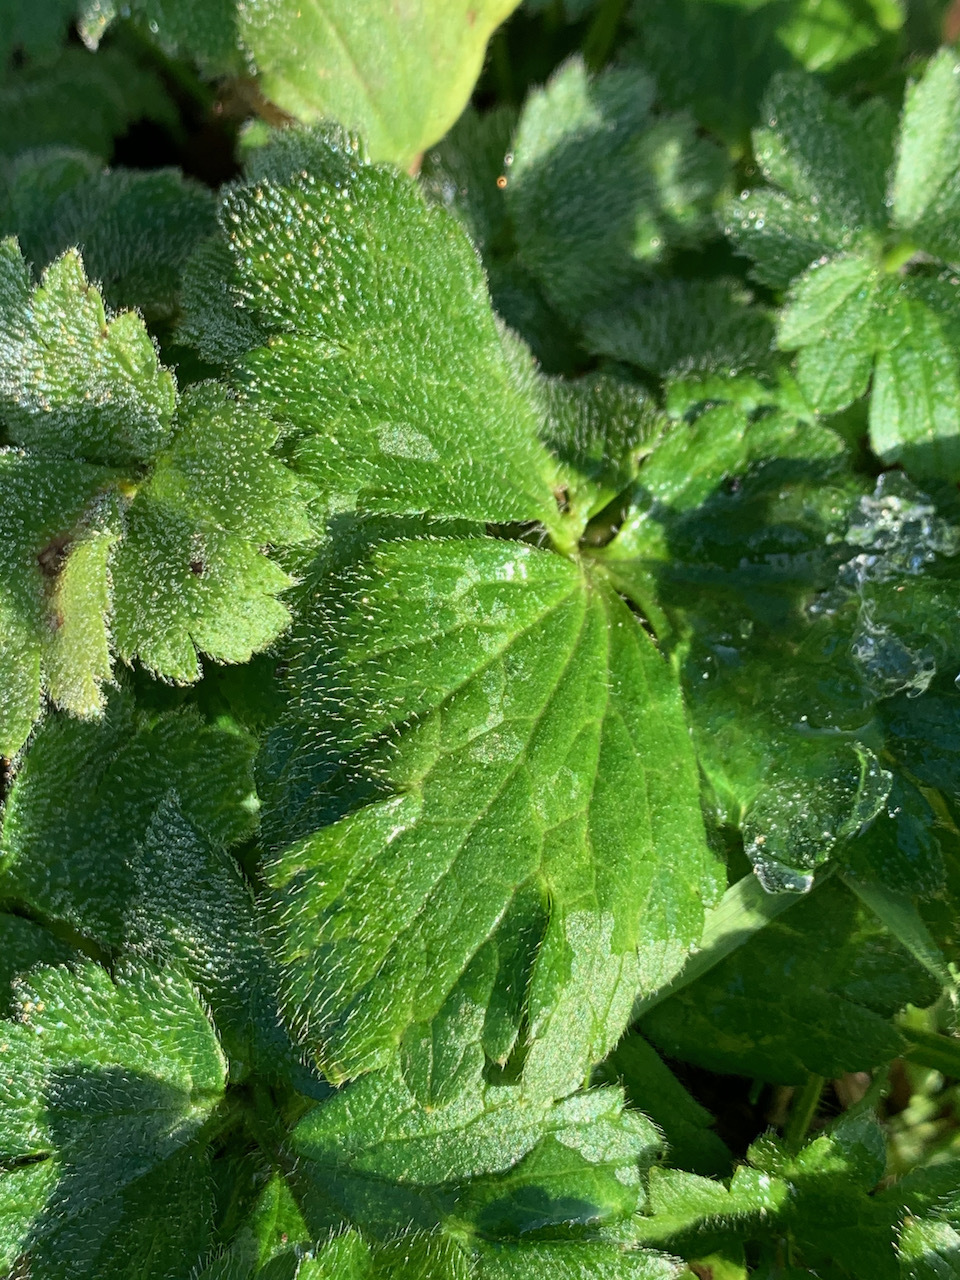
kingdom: Plantae
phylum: Tracheophyta
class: Magnoliopsida
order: Ranunculales
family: Ranunculaceae
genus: Ranunculus
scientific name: Ranunculus repens
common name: Creeping buttercup
